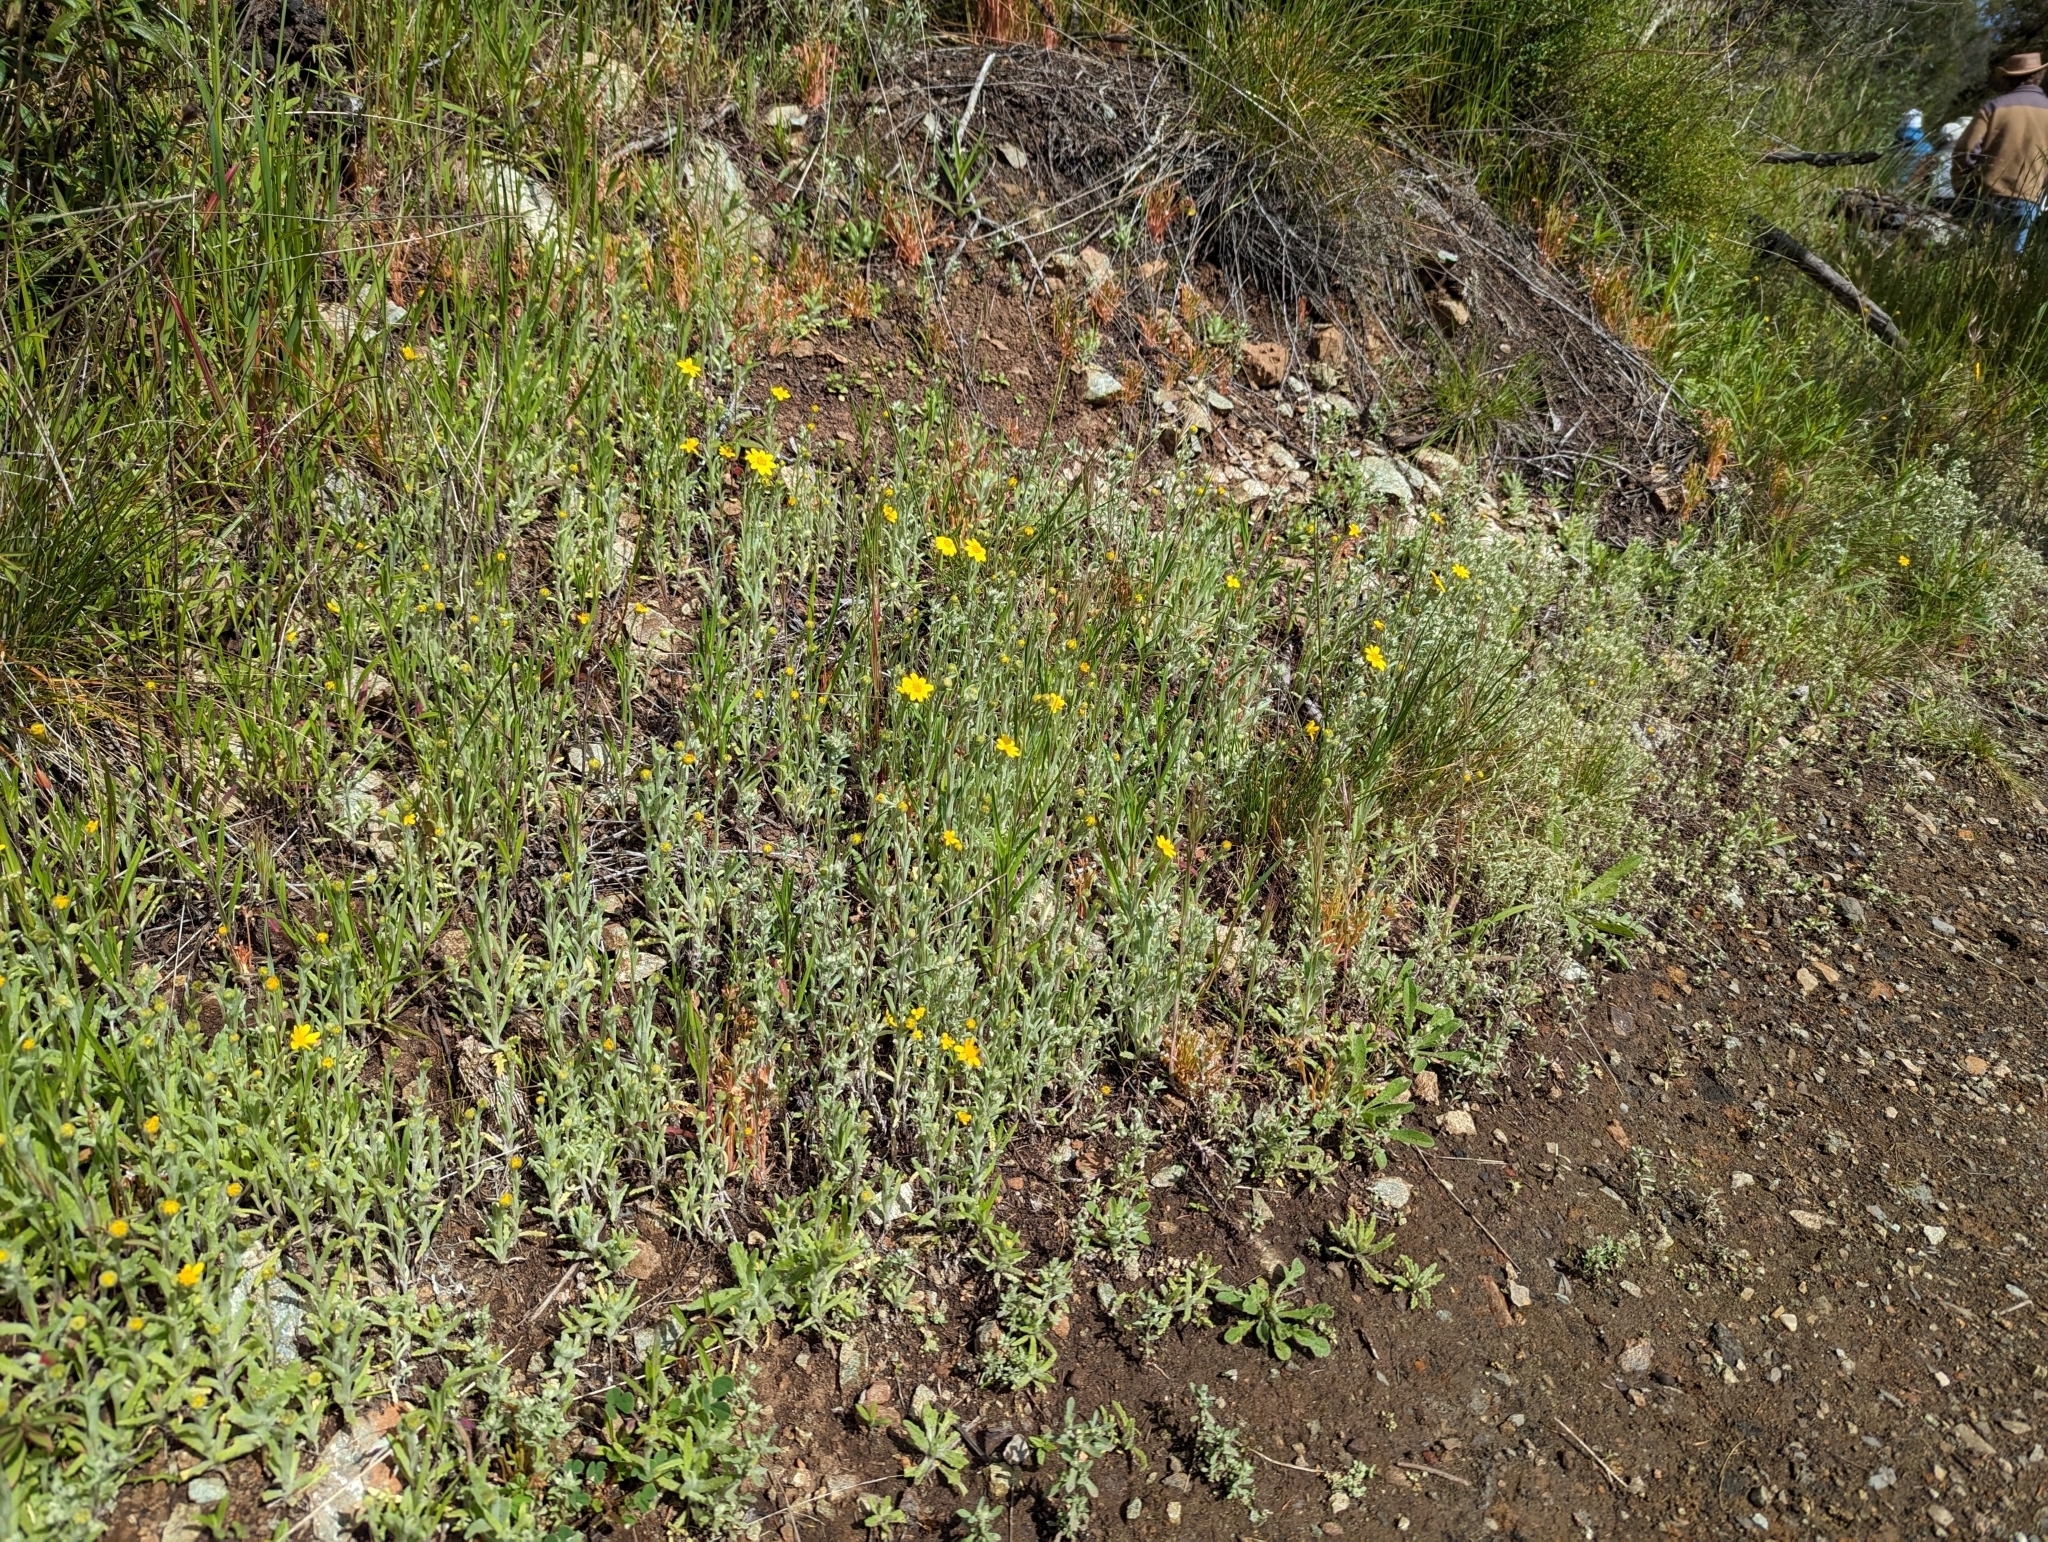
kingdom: Plantae
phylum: Tracheophyta
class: Magnoliopsida
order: Asterales
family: Asteraceae
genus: Monolopia
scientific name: Monolopia gracilens
